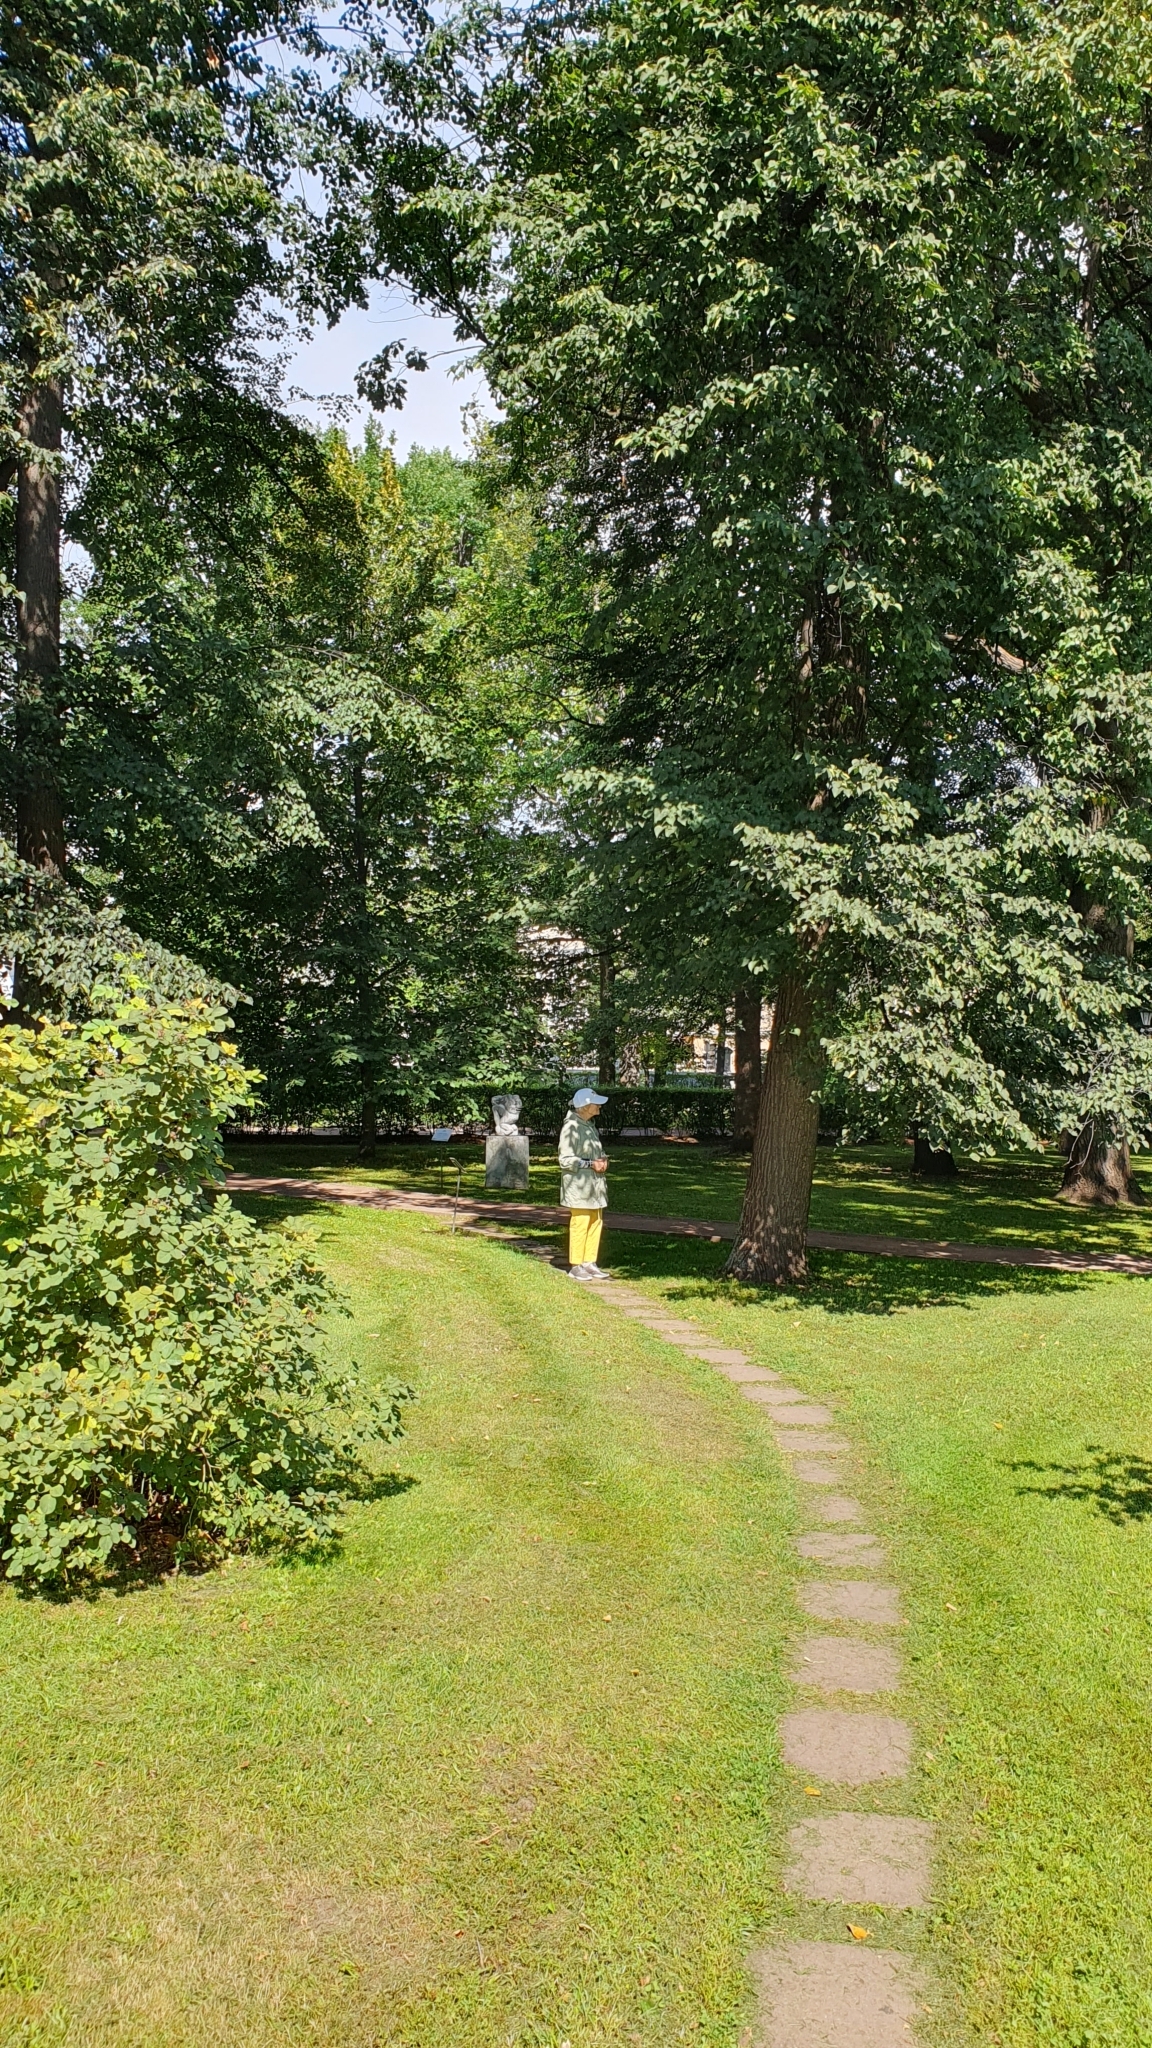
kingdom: Plantae
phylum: Tracheophyta
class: Magnoliopsida
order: Malvales
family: Malvaceae
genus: Tilia
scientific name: Tilia cordata
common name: Small-leaved lime
